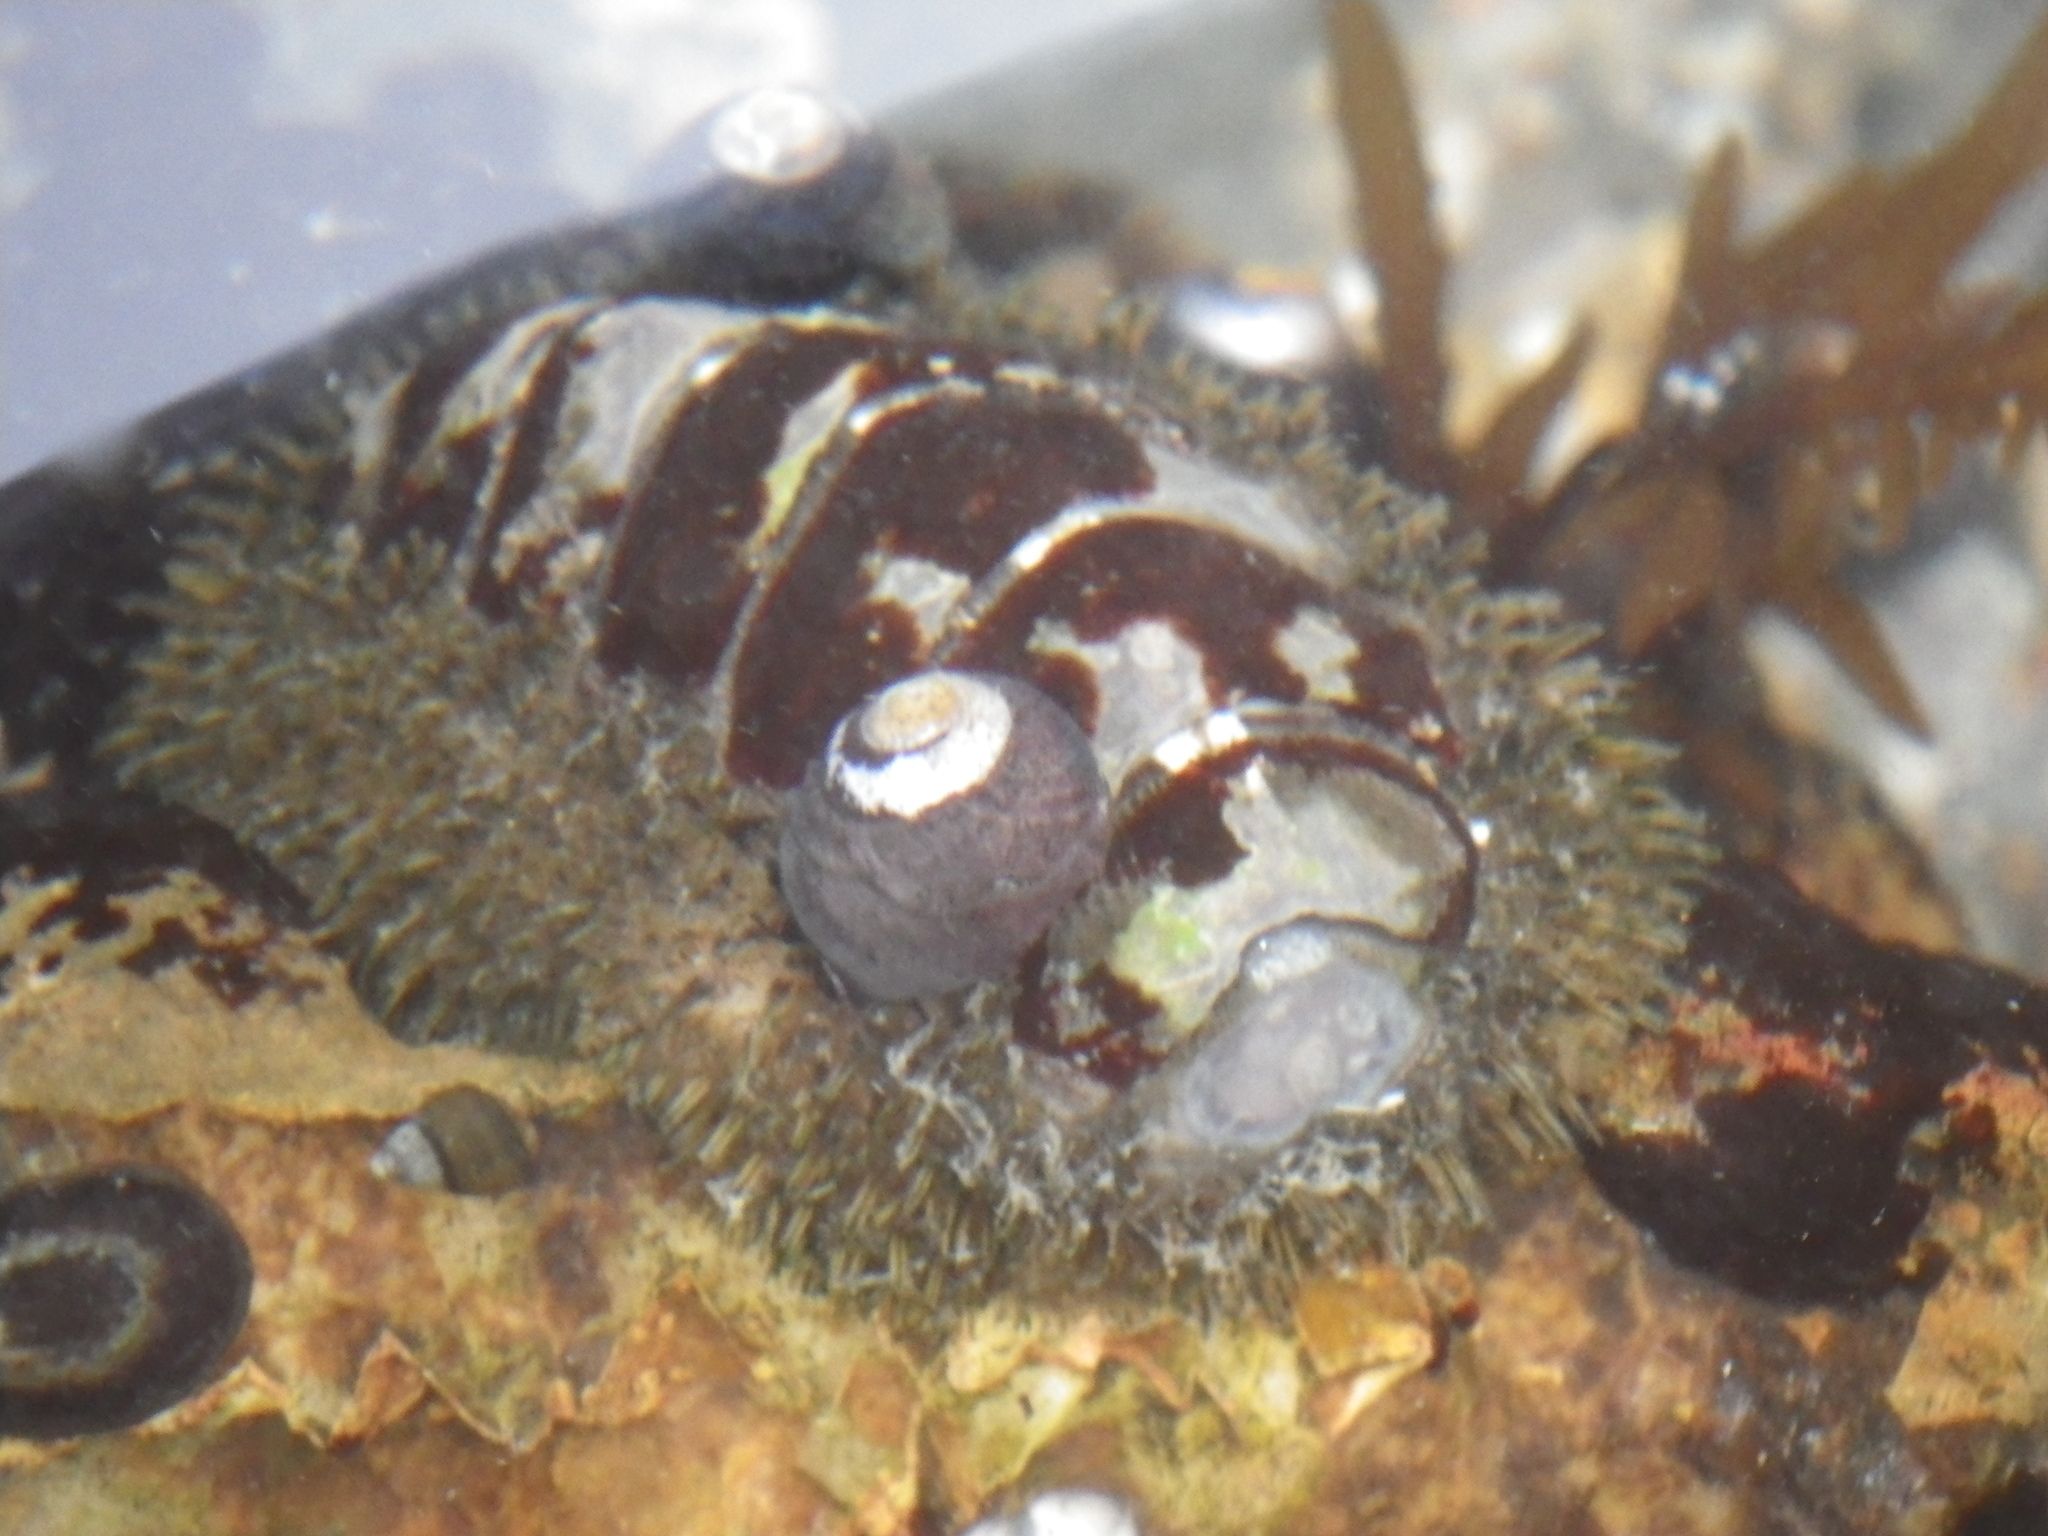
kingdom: Animalia
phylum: Mollusca
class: Polyplacophora
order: Chitonida
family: Mopaliidae
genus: Mopalia
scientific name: Mopalia muscosa
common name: Mossy chiton
